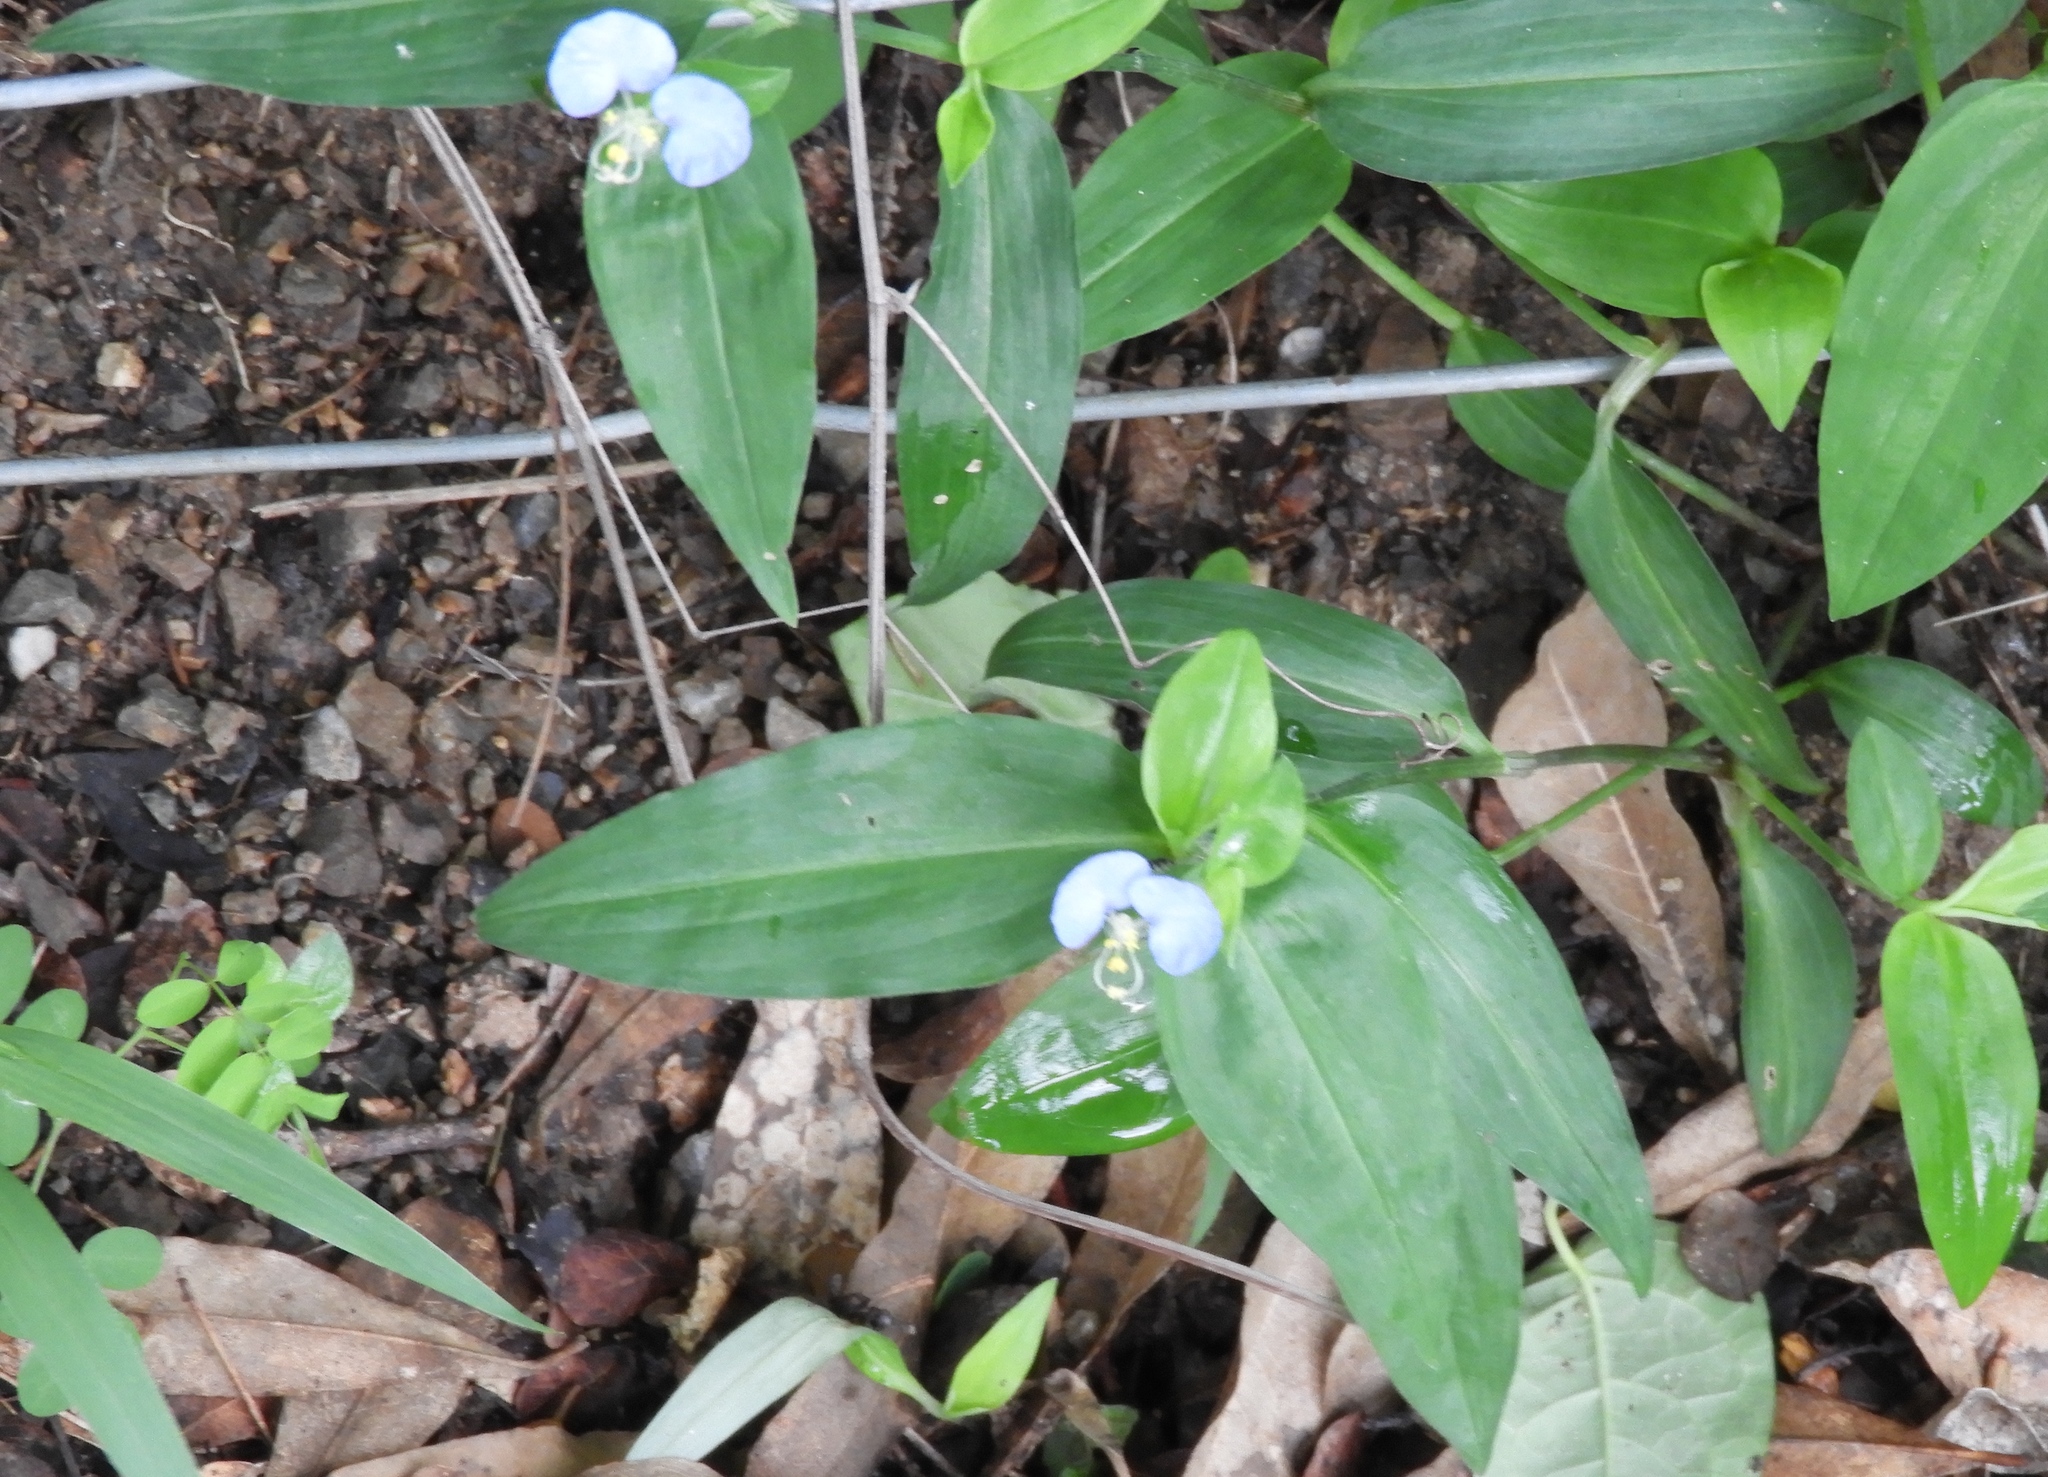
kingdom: Plantae
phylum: Tracheophyta
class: Liliopsida
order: Commelinales
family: Commelinaceae
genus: Commelina
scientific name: Commelina erecta
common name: Blousel blommetjie
